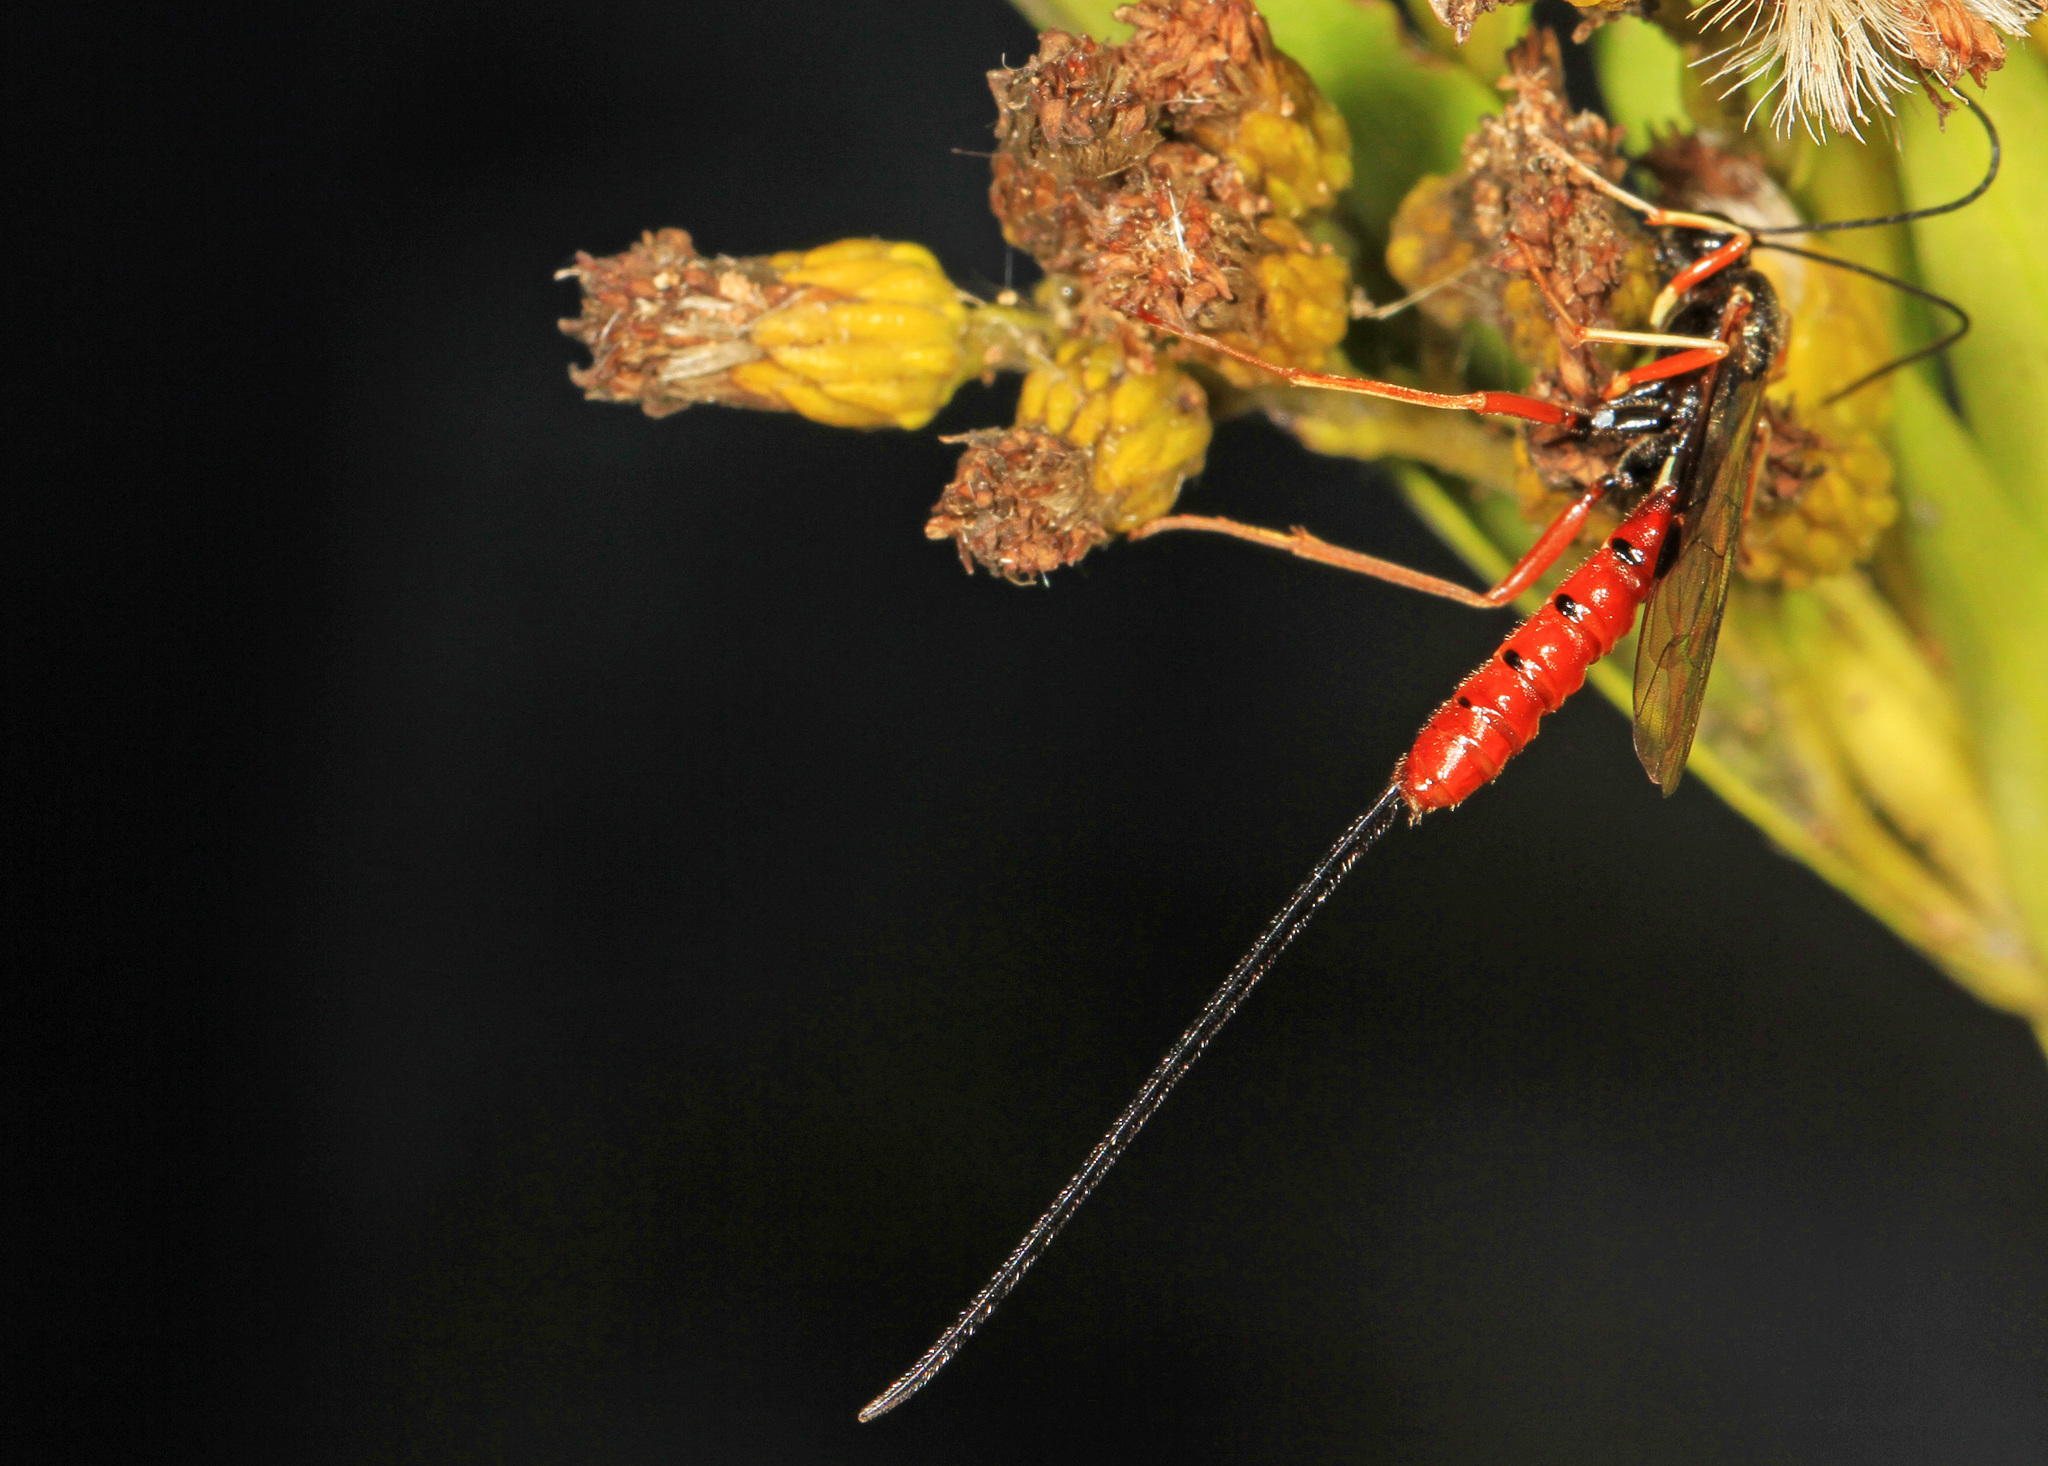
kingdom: Animalia
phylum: Arthropoda
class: Insecta
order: Hymenoptera
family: Ichneumonidae
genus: Dolichomitus
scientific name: Dolichomitus irritator
